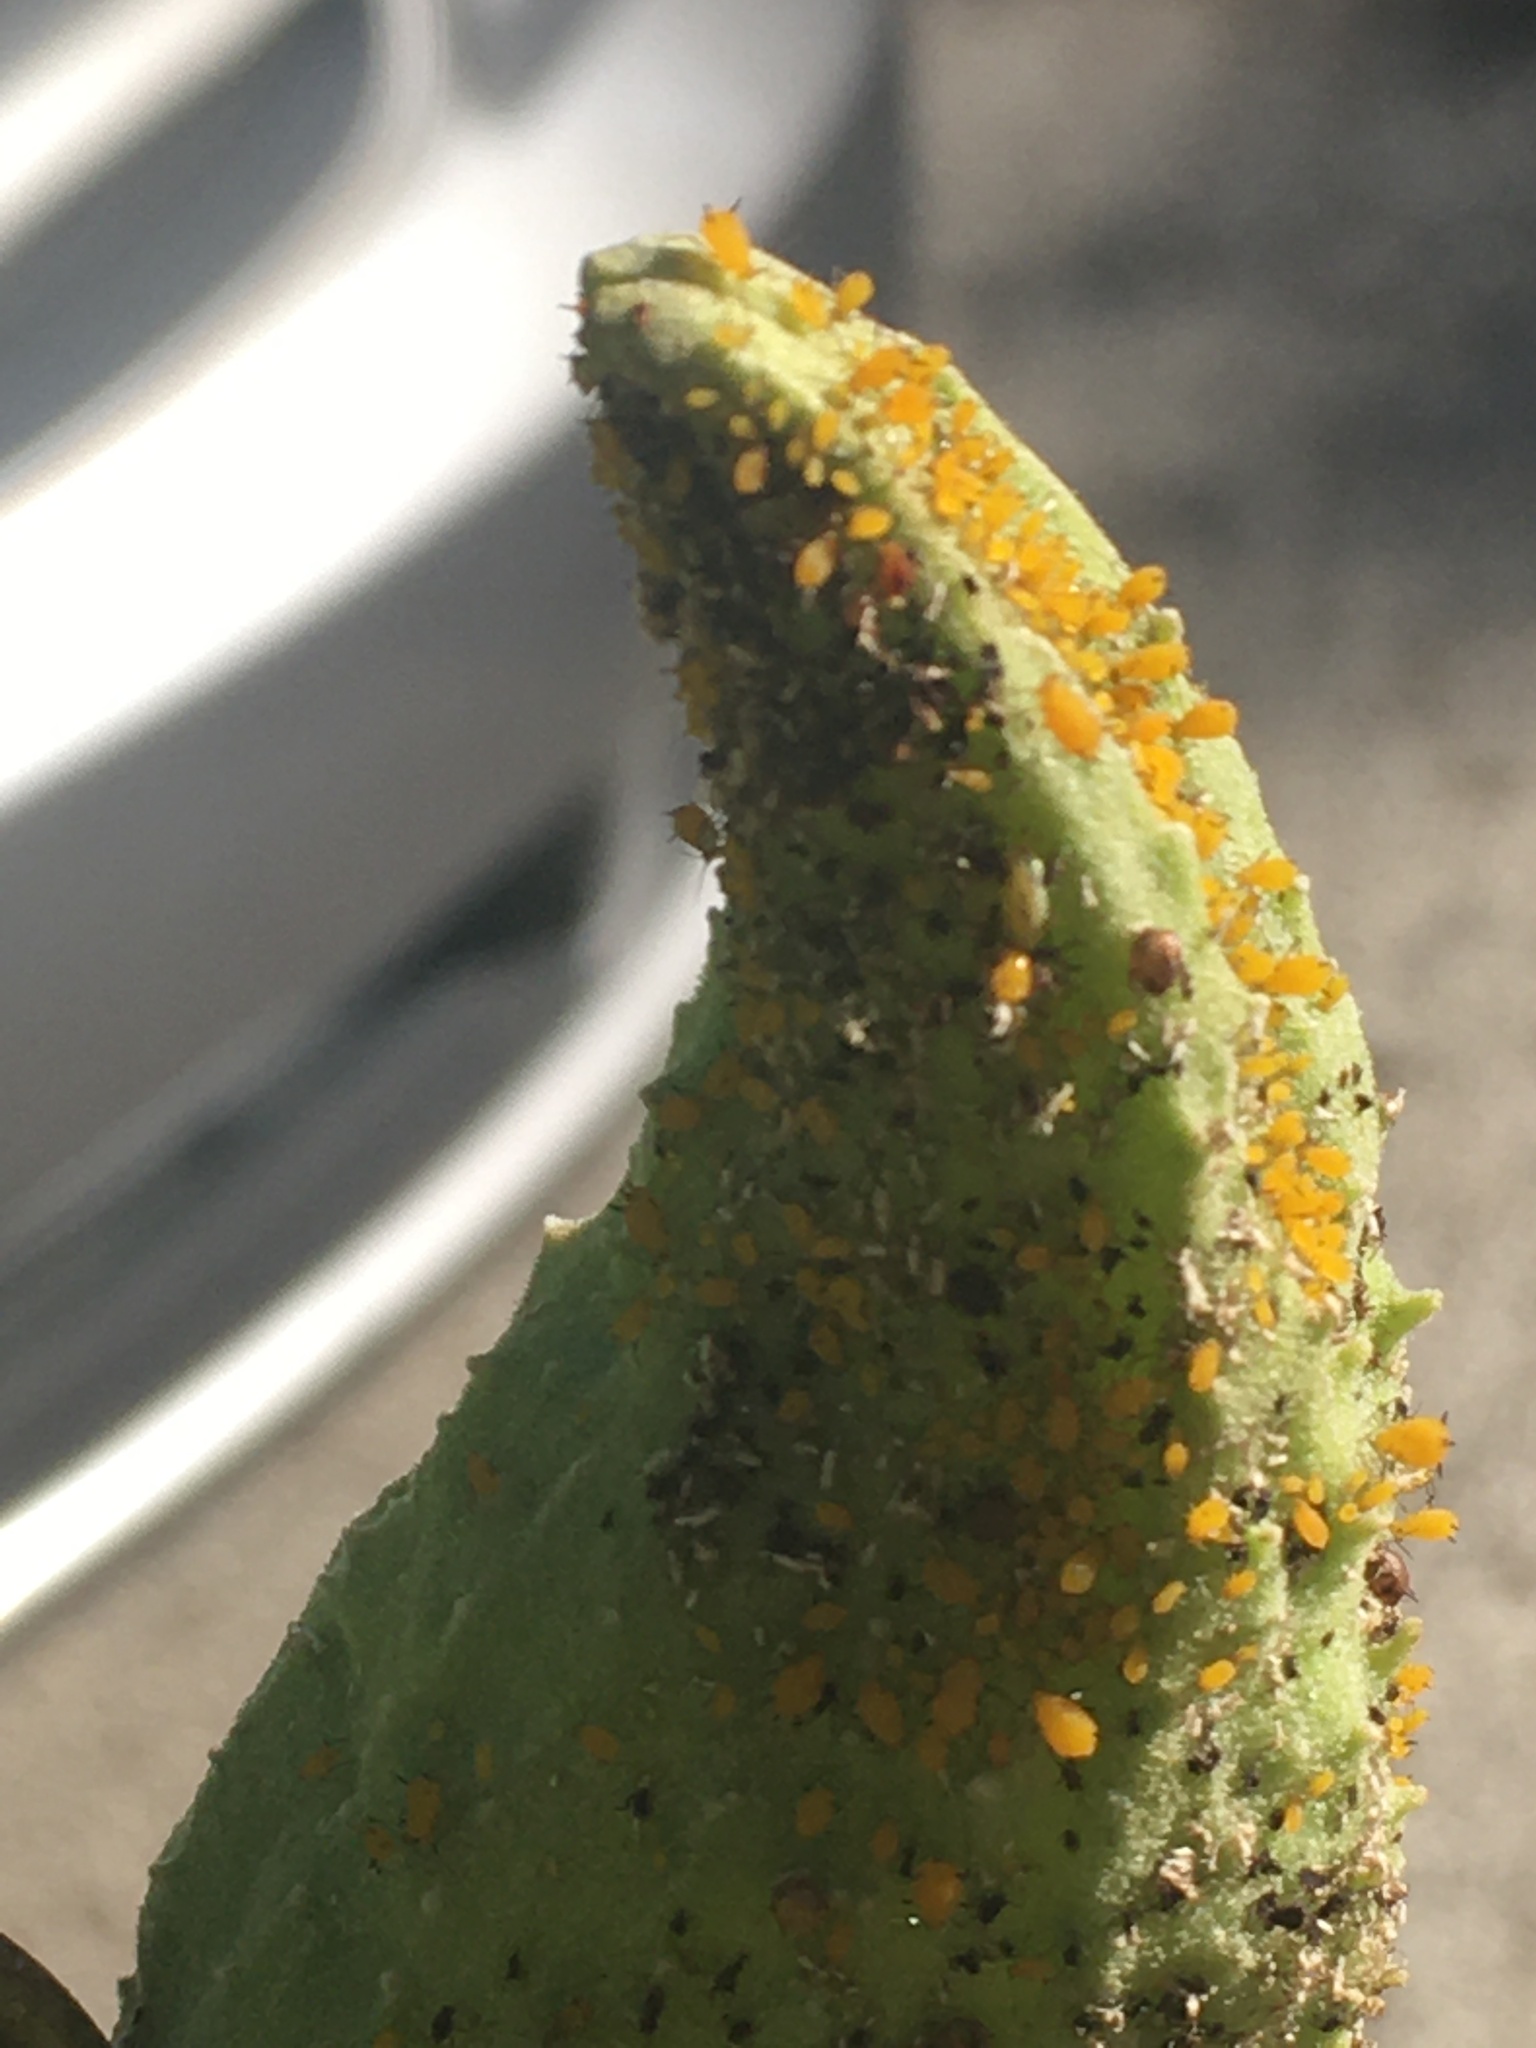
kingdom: Animalia
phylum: Arthropoda
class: Insecta
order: Hemiptera
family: Aphididae
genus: Aphis
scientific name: Aphis nerii
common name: Oleander aphid
